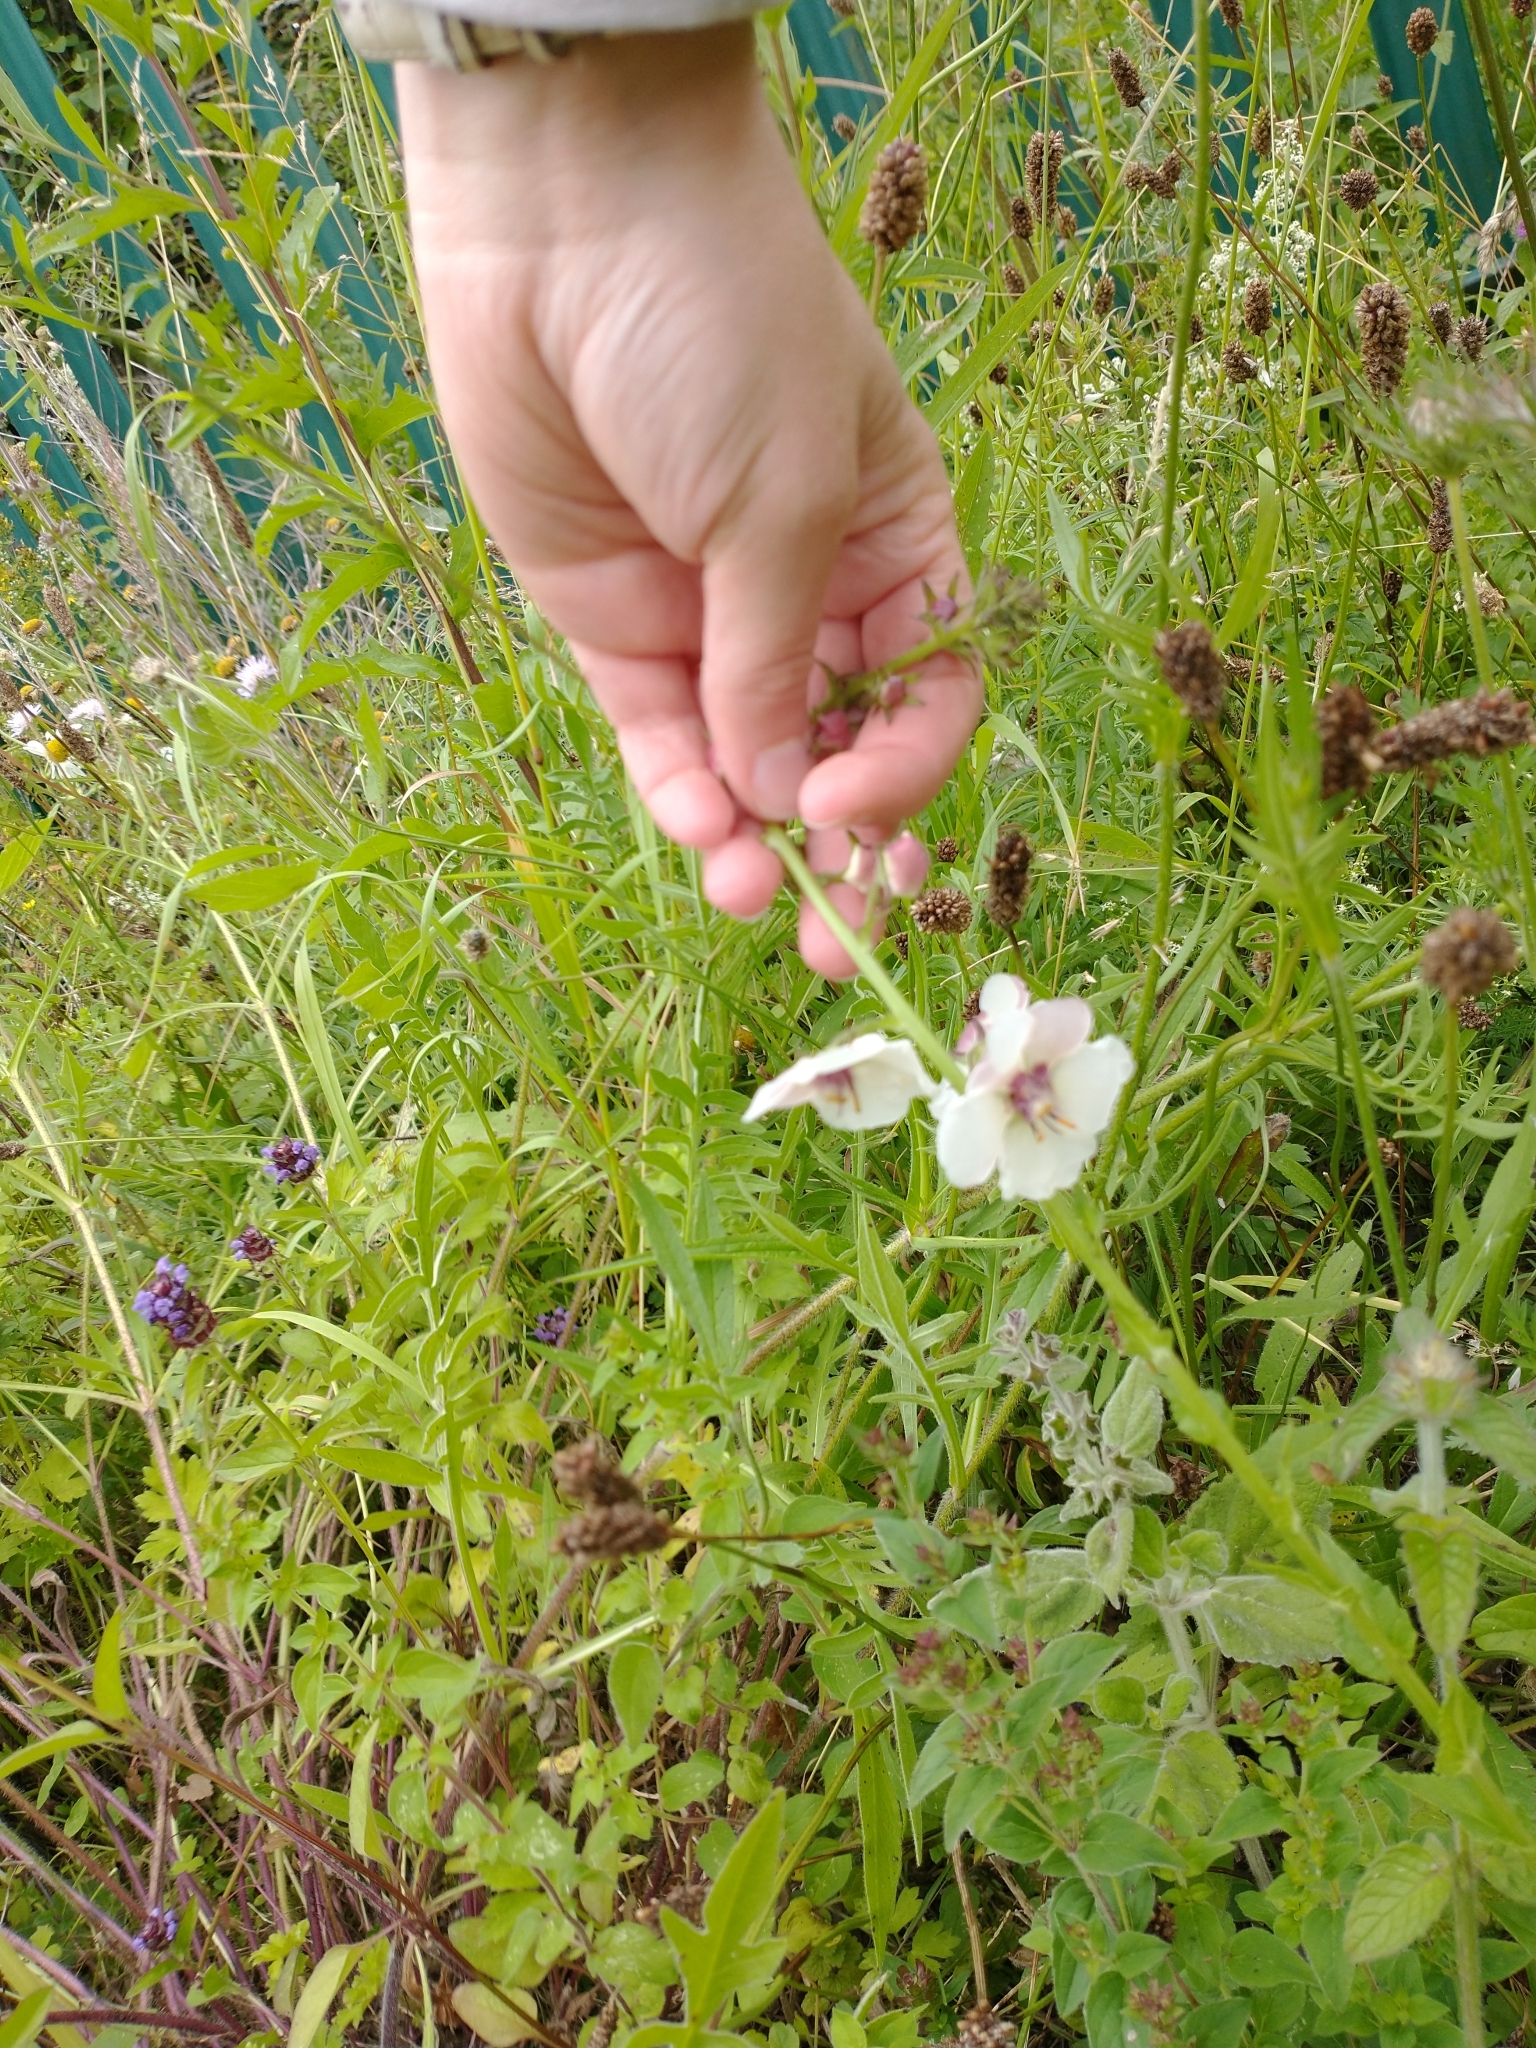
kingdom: Plantae
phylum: Tracheophyta
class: Magnoliopsida
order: Lamiales
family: Scrophulariaceae
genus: Verbascum
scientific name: Verbascum blattaria
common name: Moth mullein
